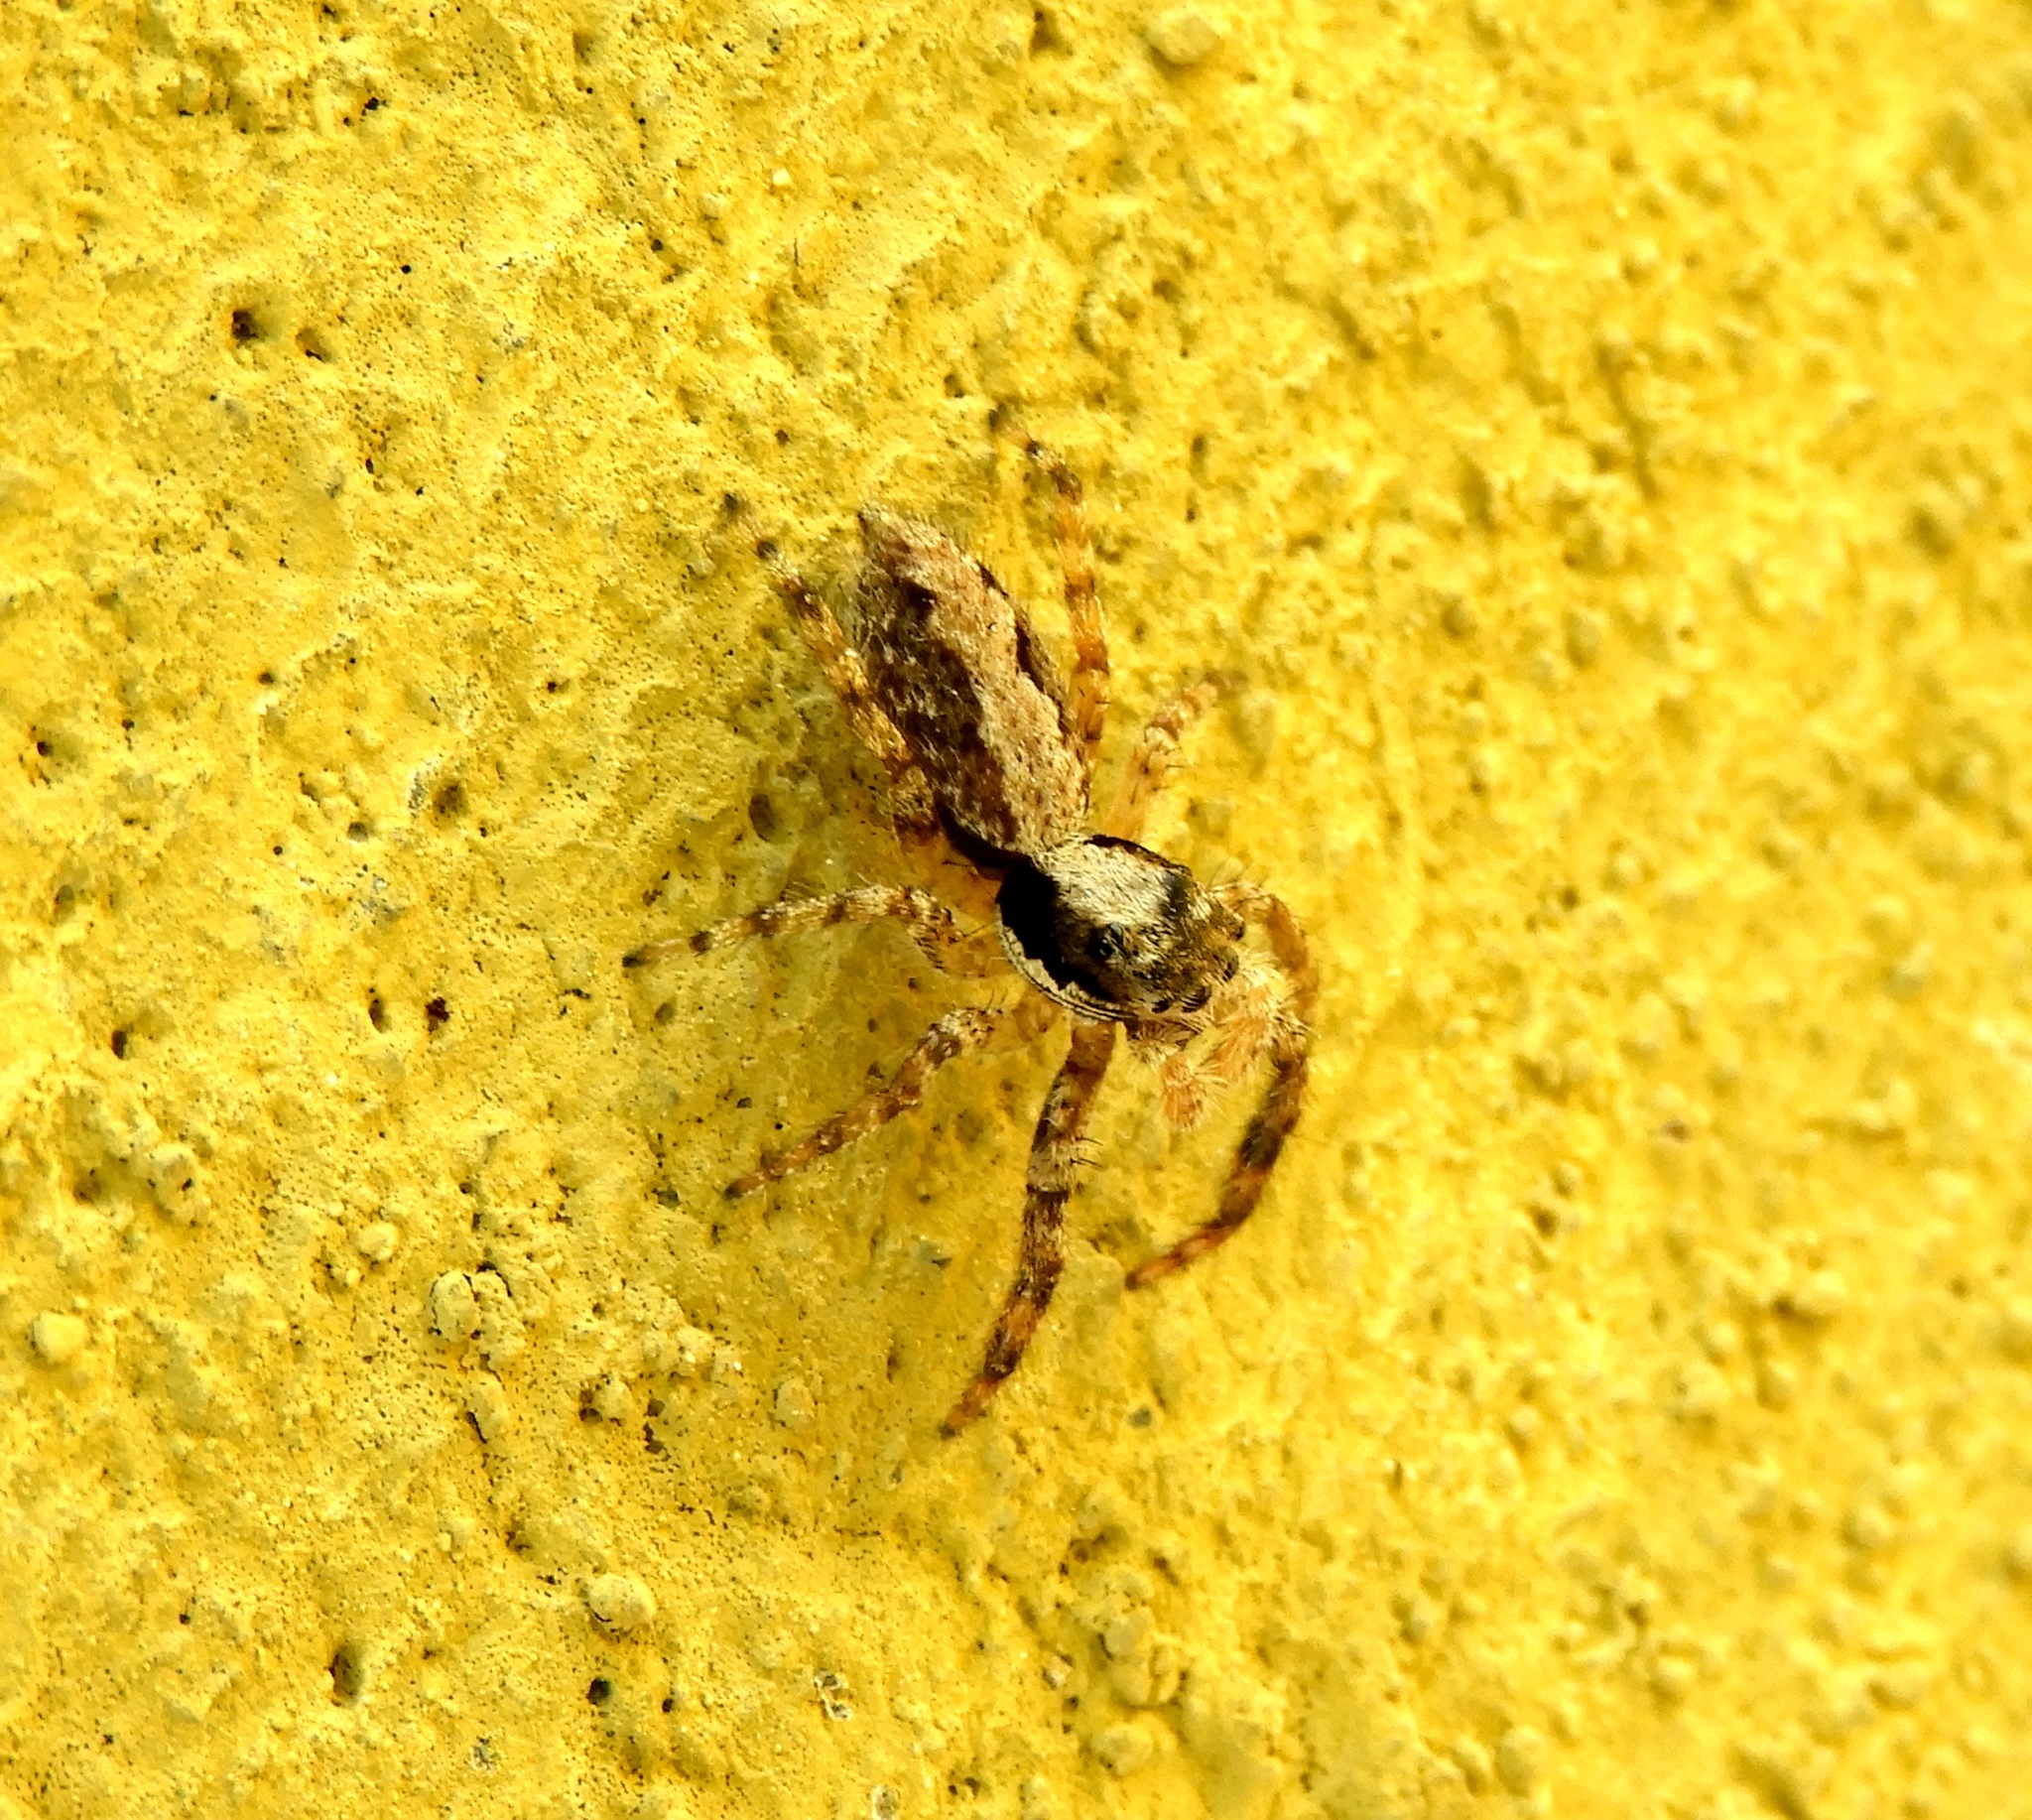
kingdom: Animalia
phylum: Arthropoda
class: Arachnida
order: Araneae
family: Salticidae
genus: Balmaceda
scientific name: Balmaceda
